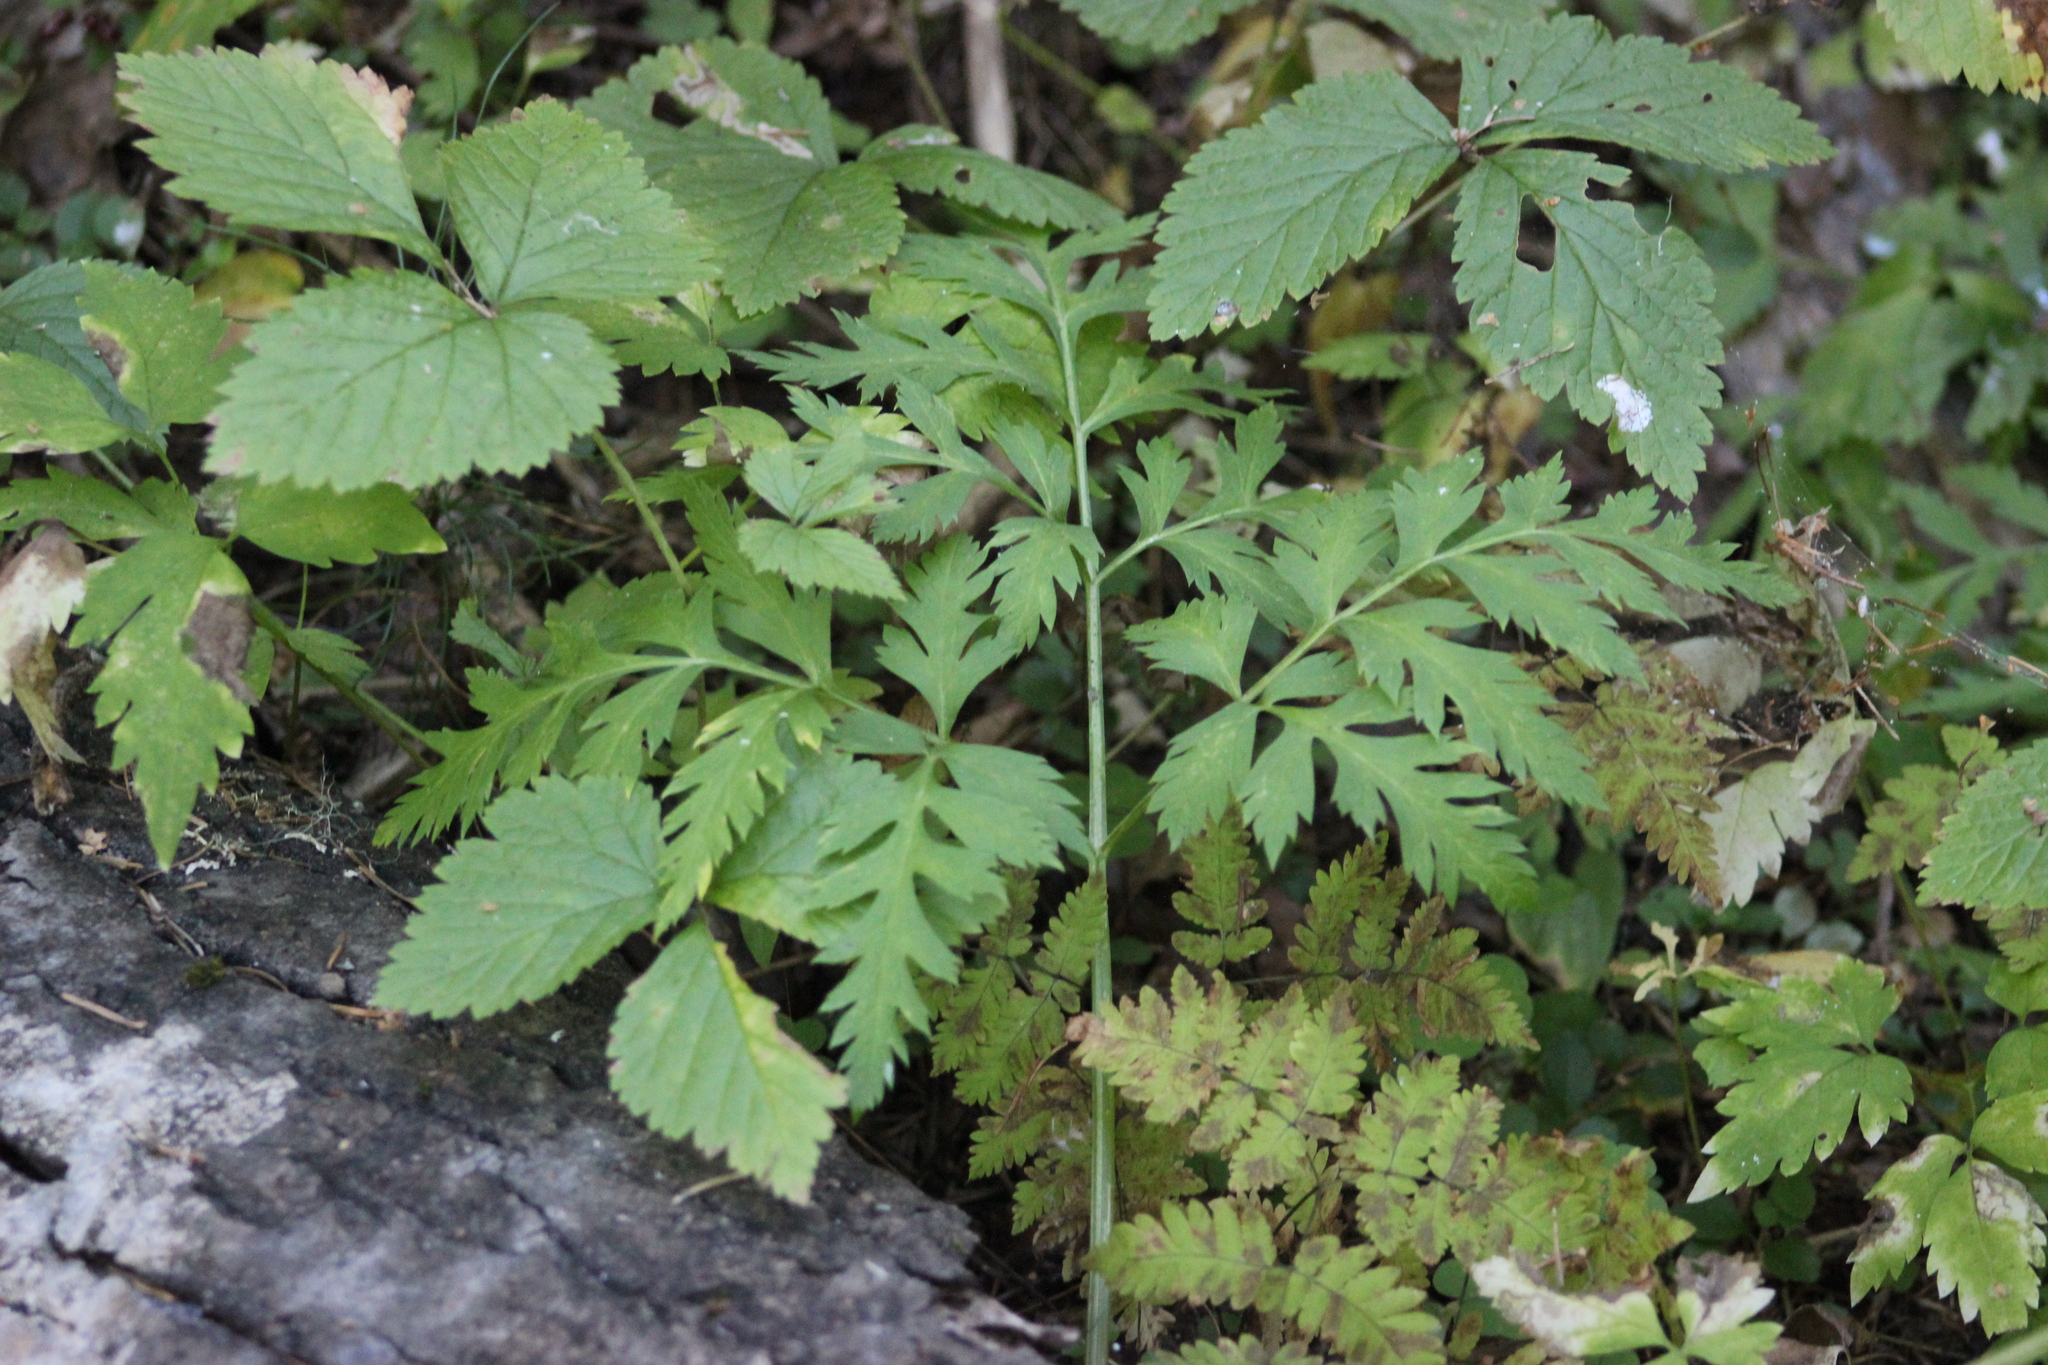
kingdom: Plantae
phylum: Tracheophyta
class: Magnoliopsida
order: Apiales
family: Apiaceae
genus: Pleurospermum
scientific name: Pleurospermum uralense
